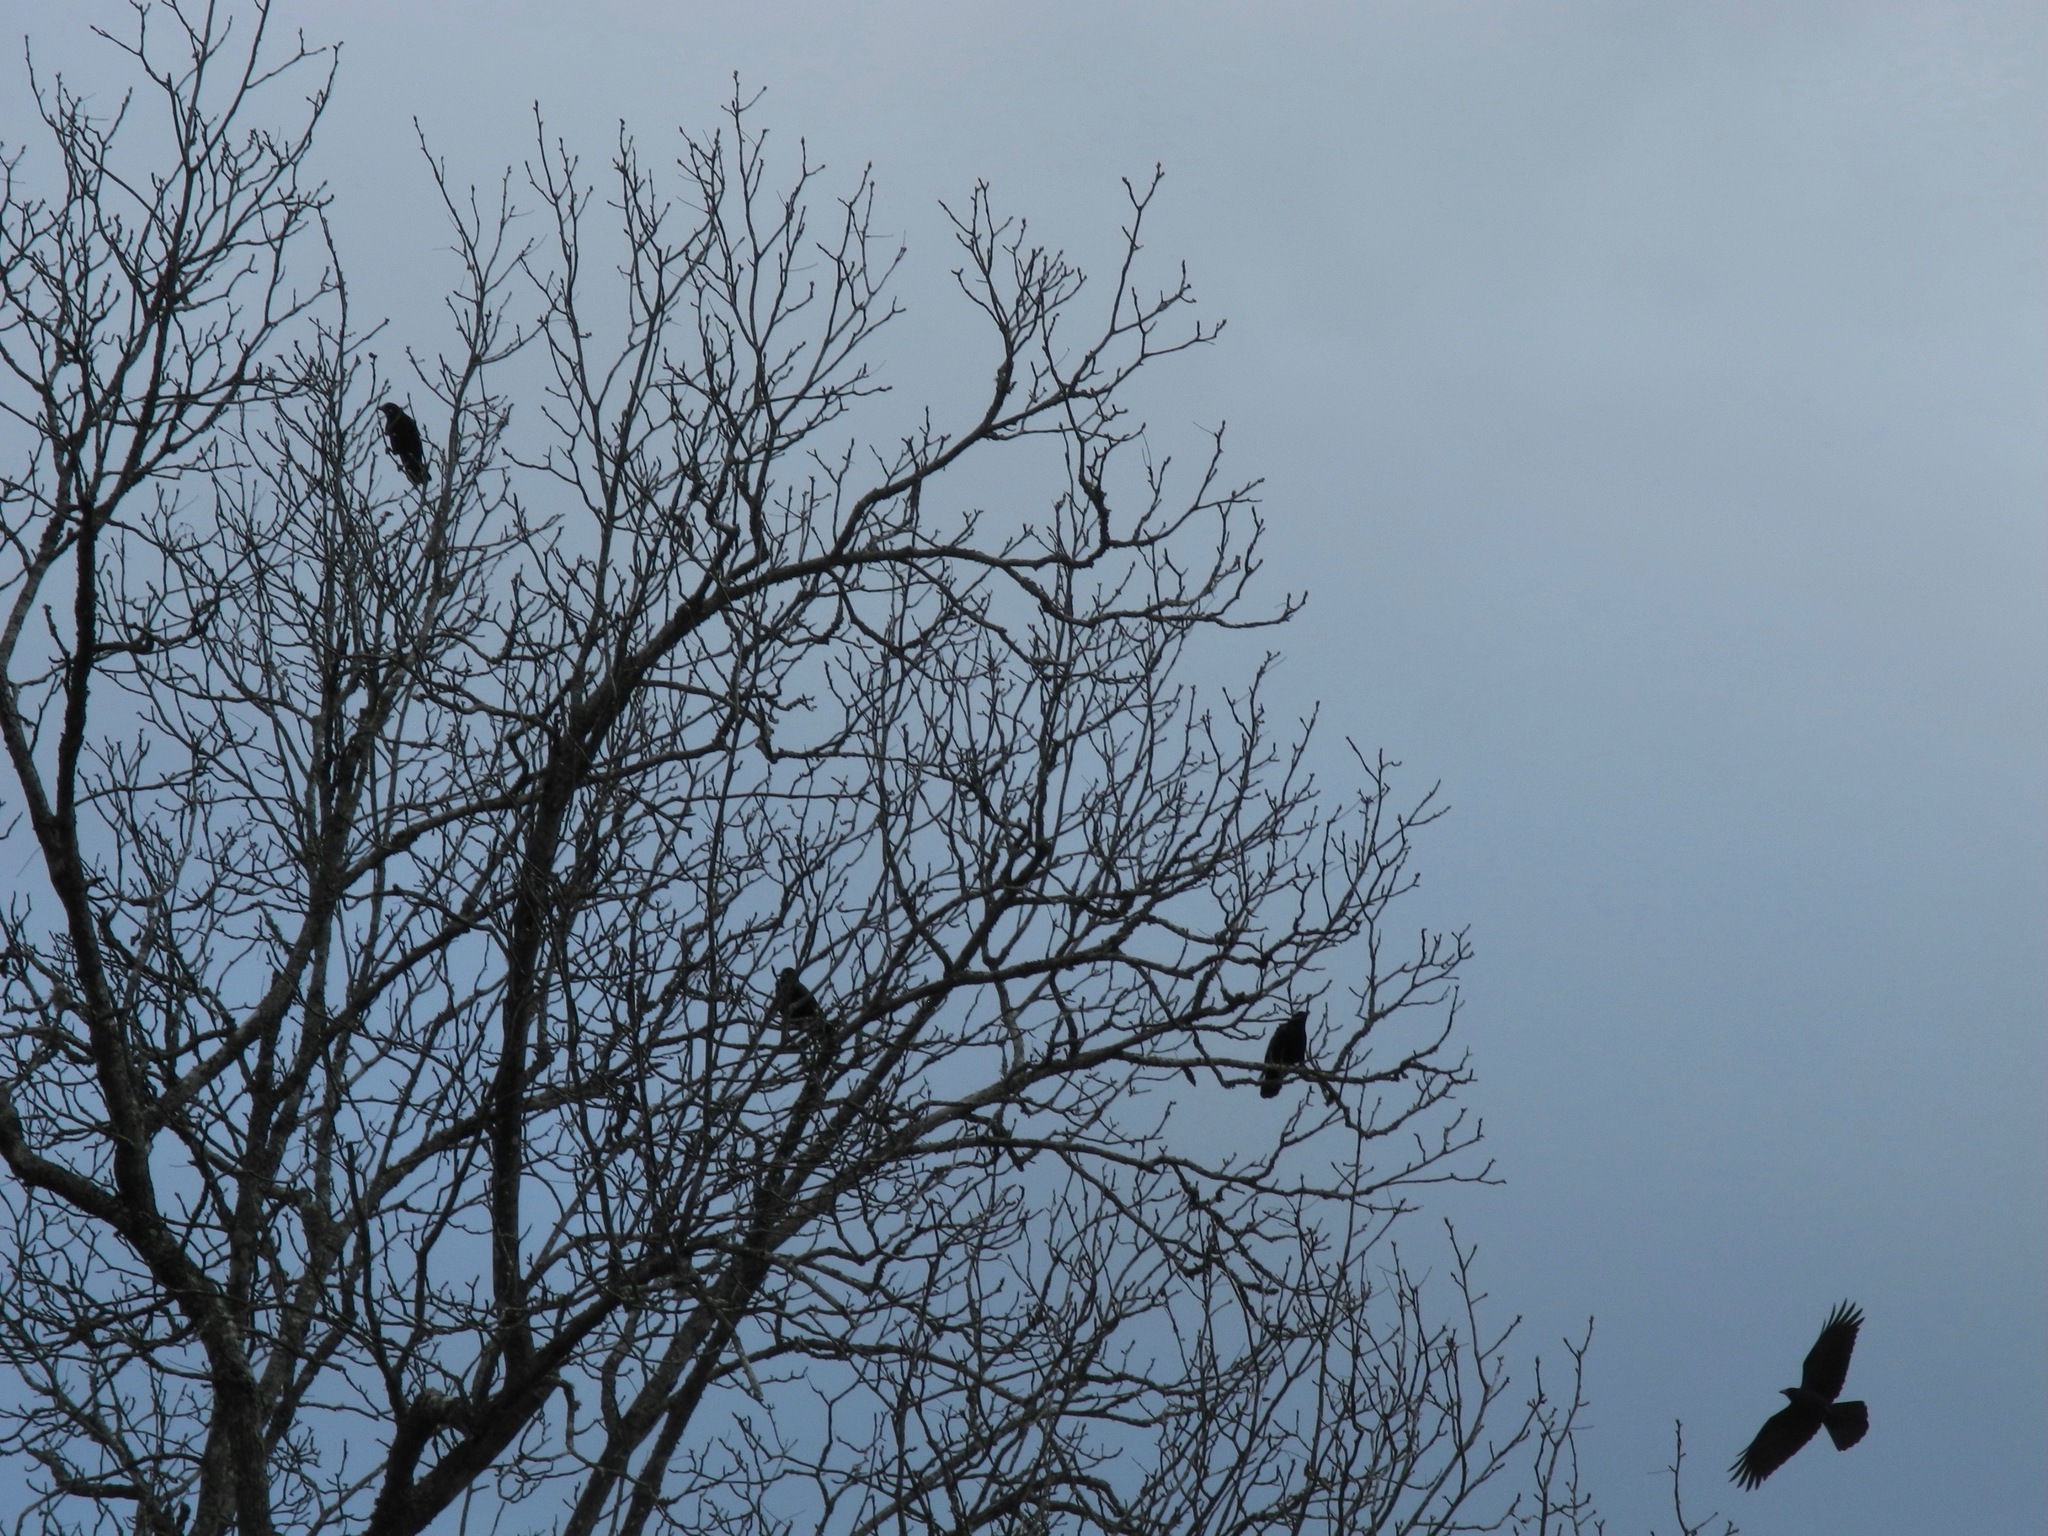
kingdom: Animalia
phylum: Chordata
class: Aves
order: Passeriformes
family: Corvidae
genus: Corvus
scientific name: Corvus brachyrhynchos
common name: American crow
